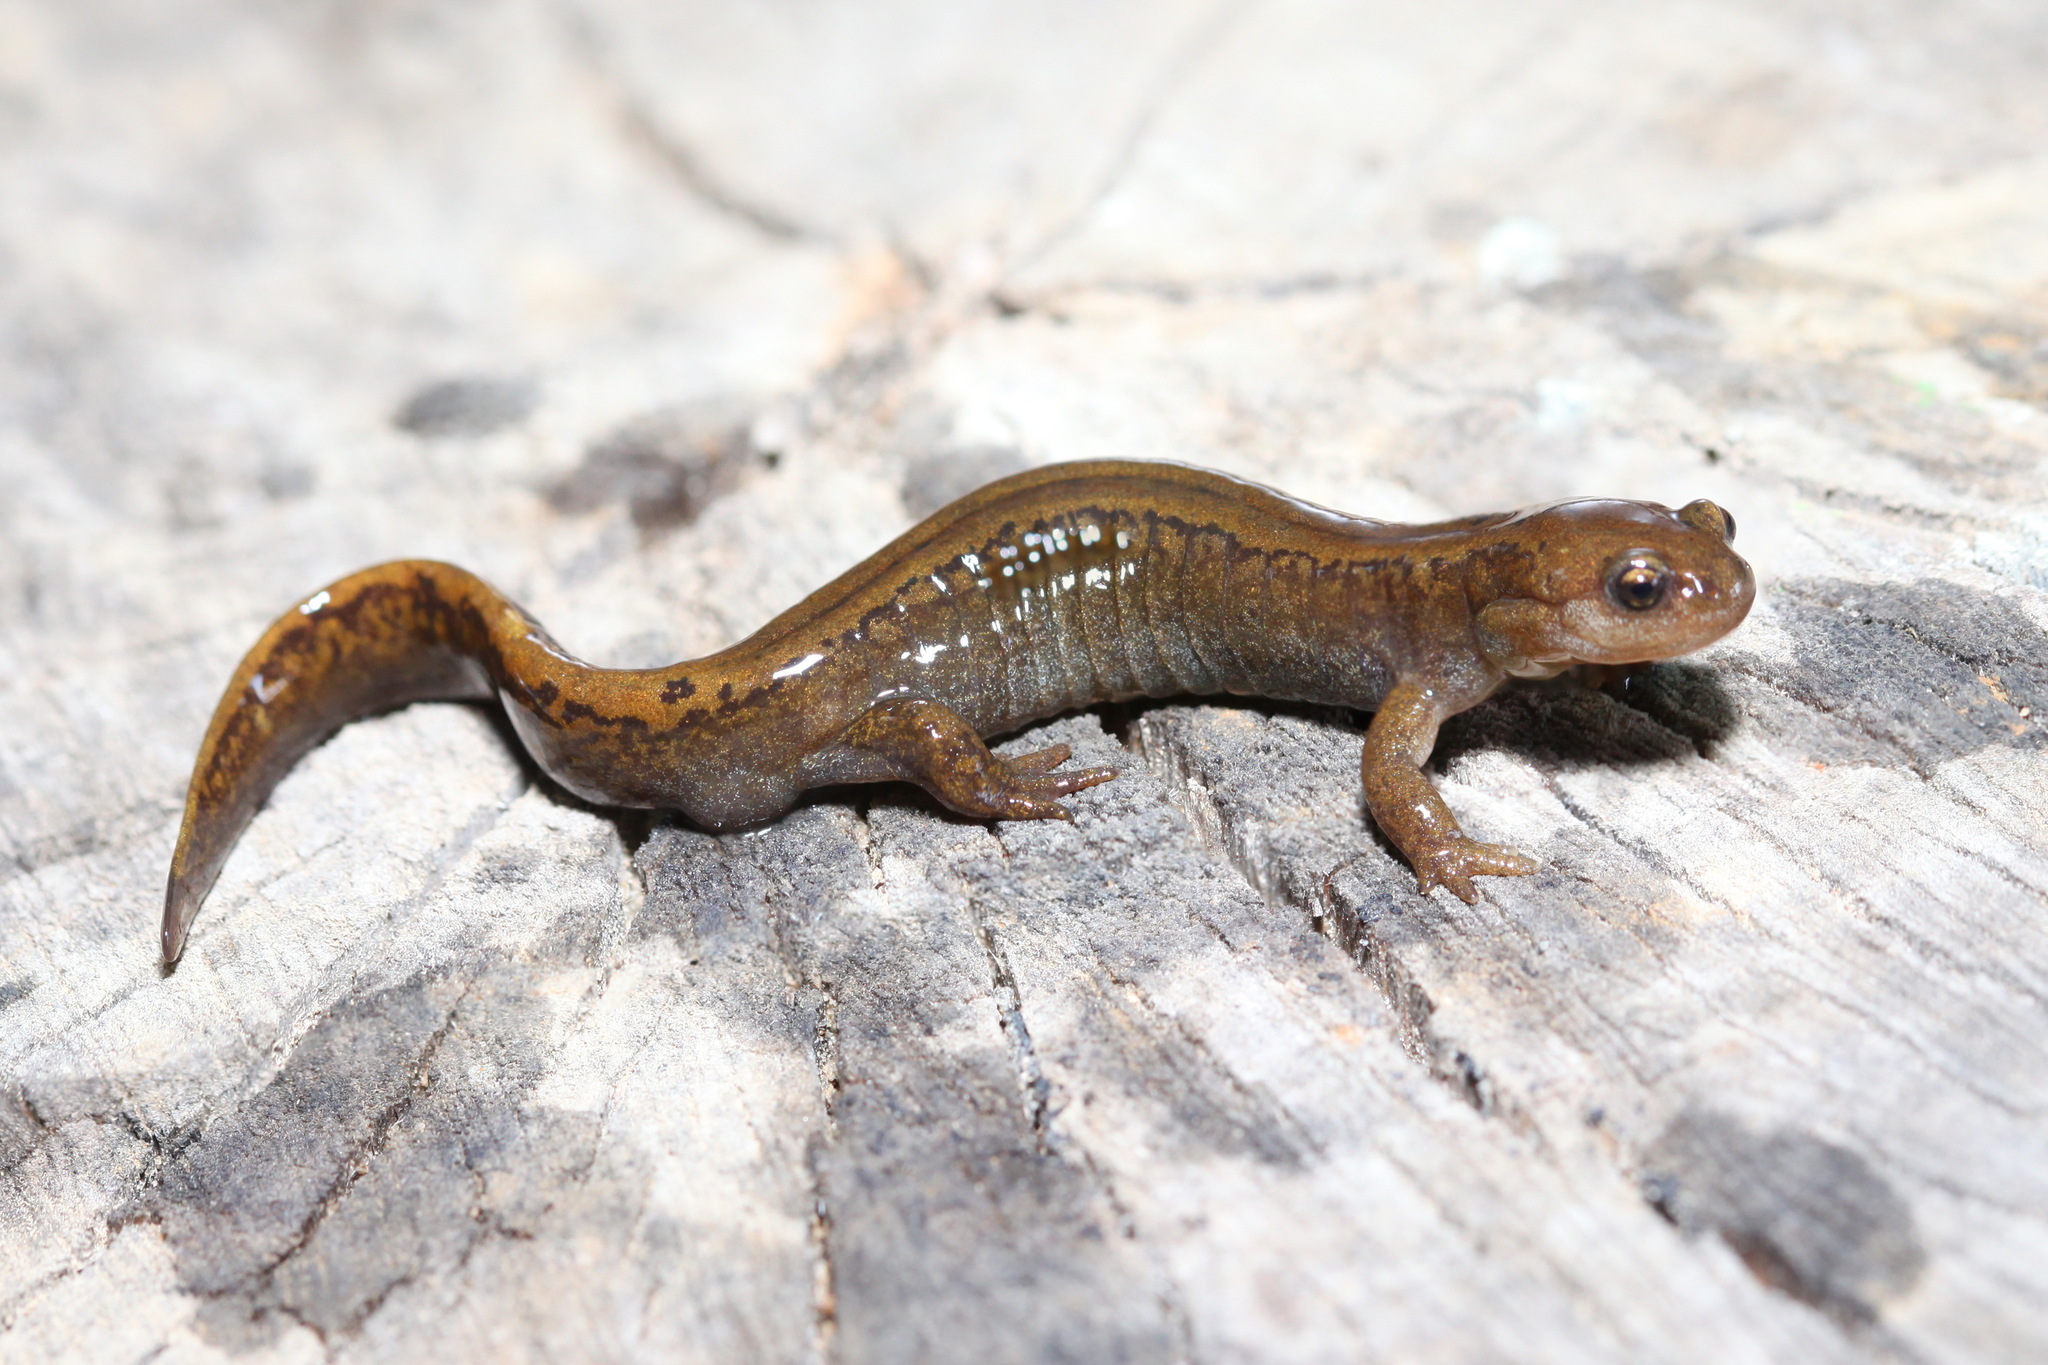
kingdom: Animalia
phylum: Chordata
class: Amphibia
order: Caudata
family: Hynobiidae
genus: Salamandrella
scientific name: Salamandrella keyserlingii
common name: Dybowski's salamander
